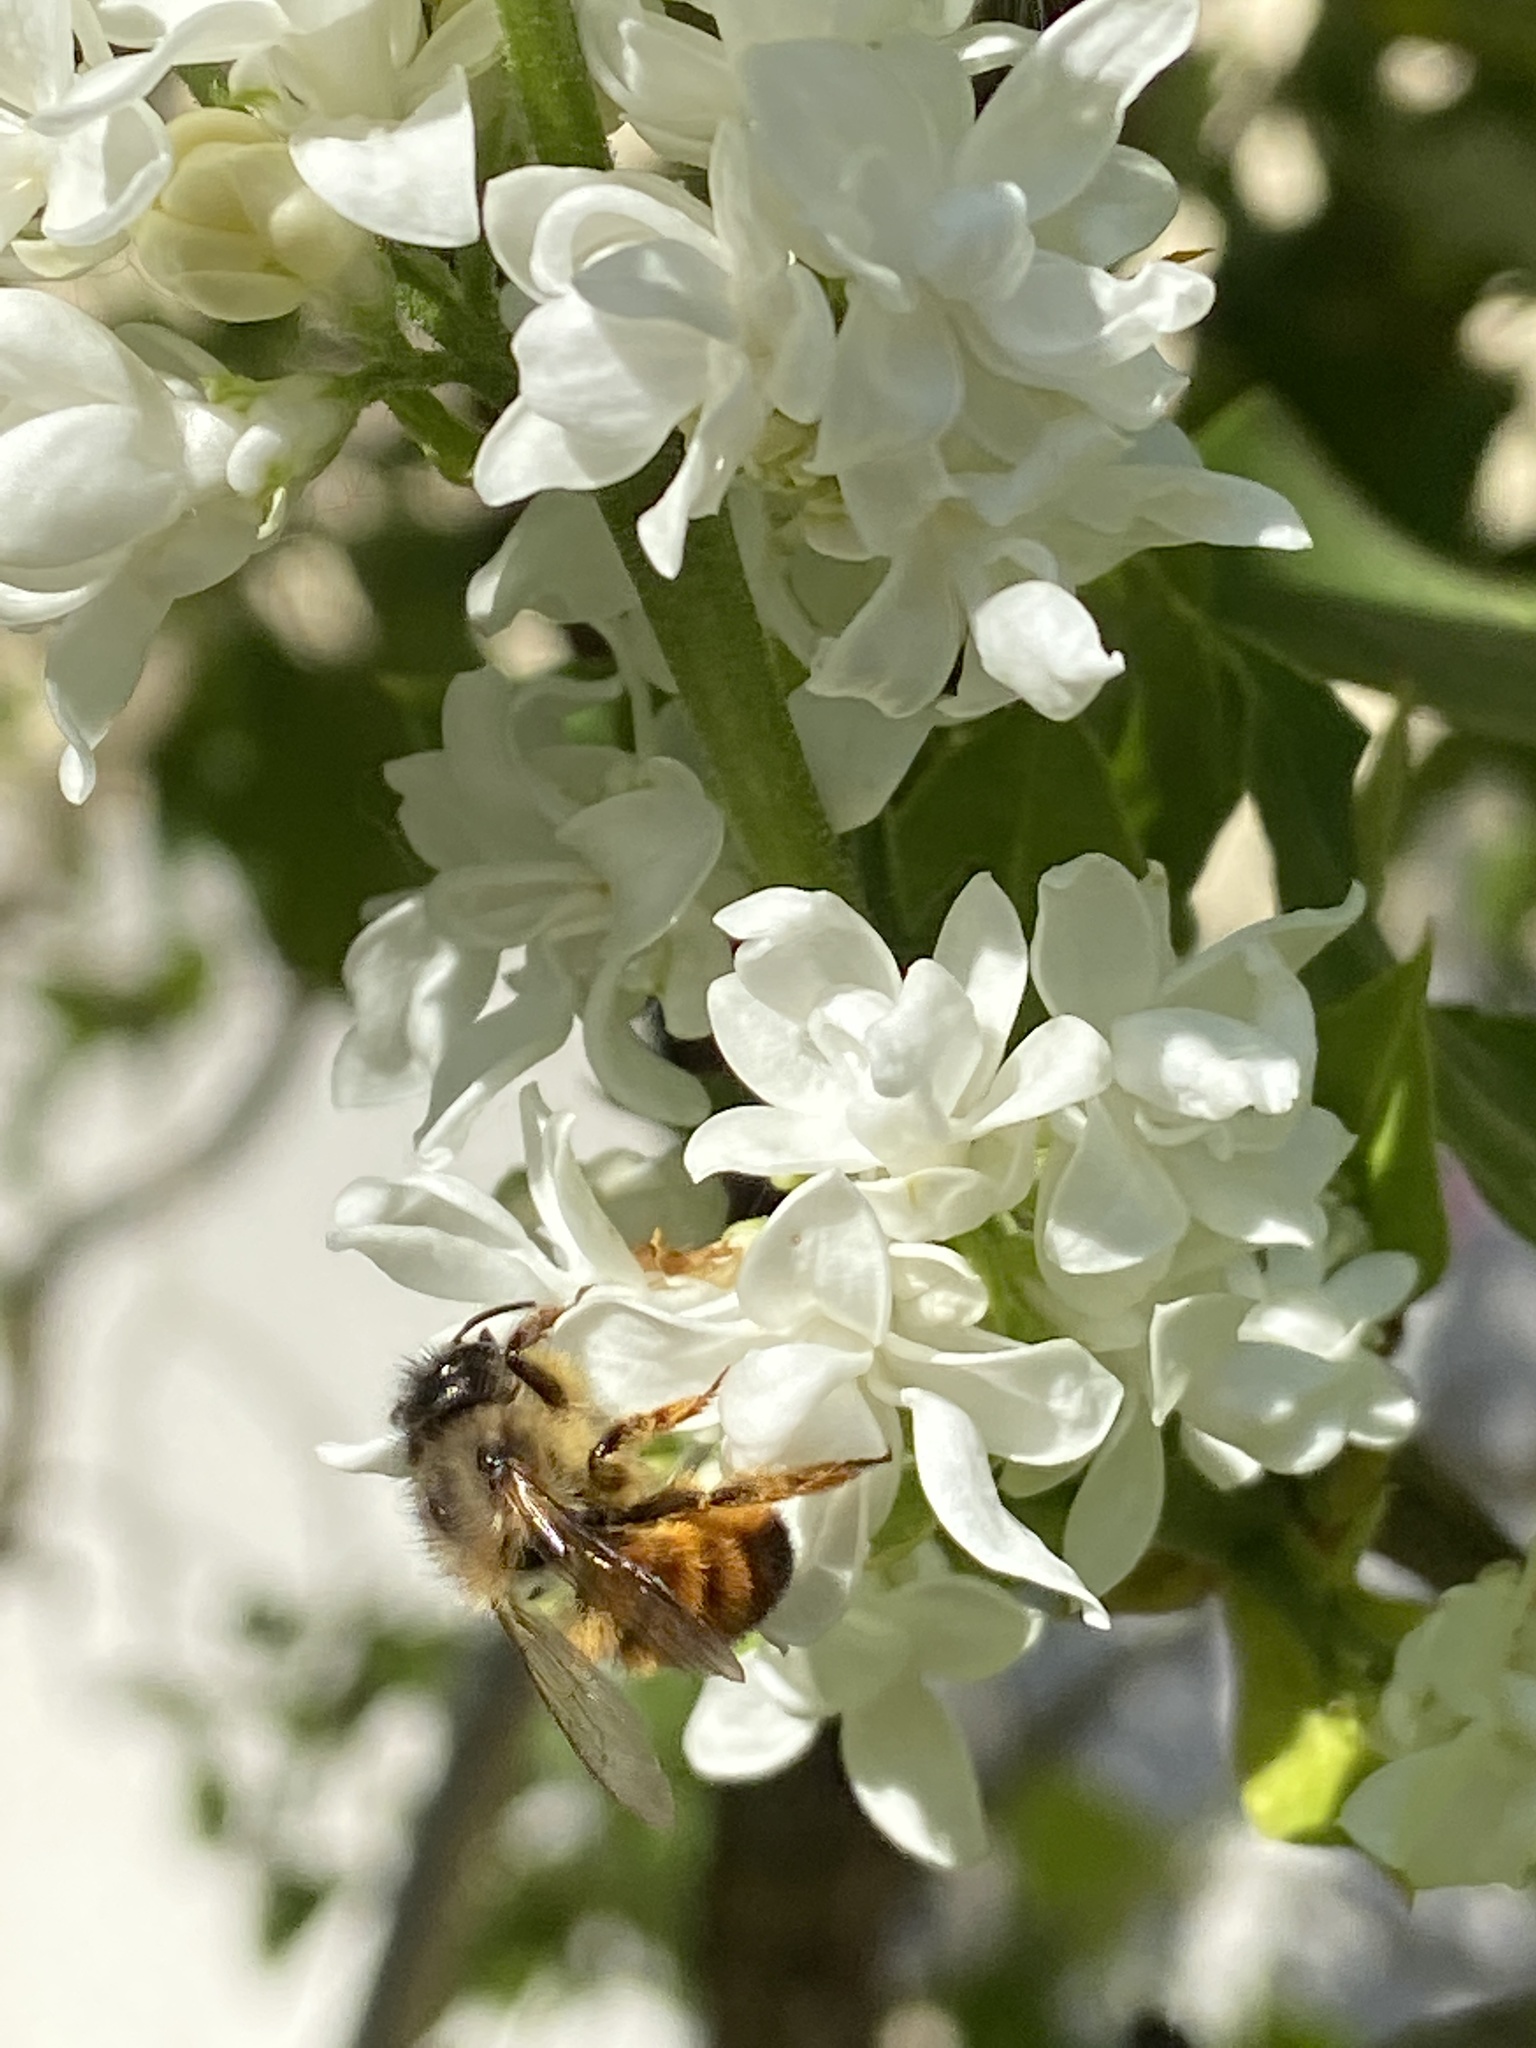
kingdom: Animalia
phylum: Arthropoda
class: Insecta
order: Hymenoptera
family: Megachilidae
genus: Osmia
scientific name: Osmia bicornis
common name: Red mason bee
